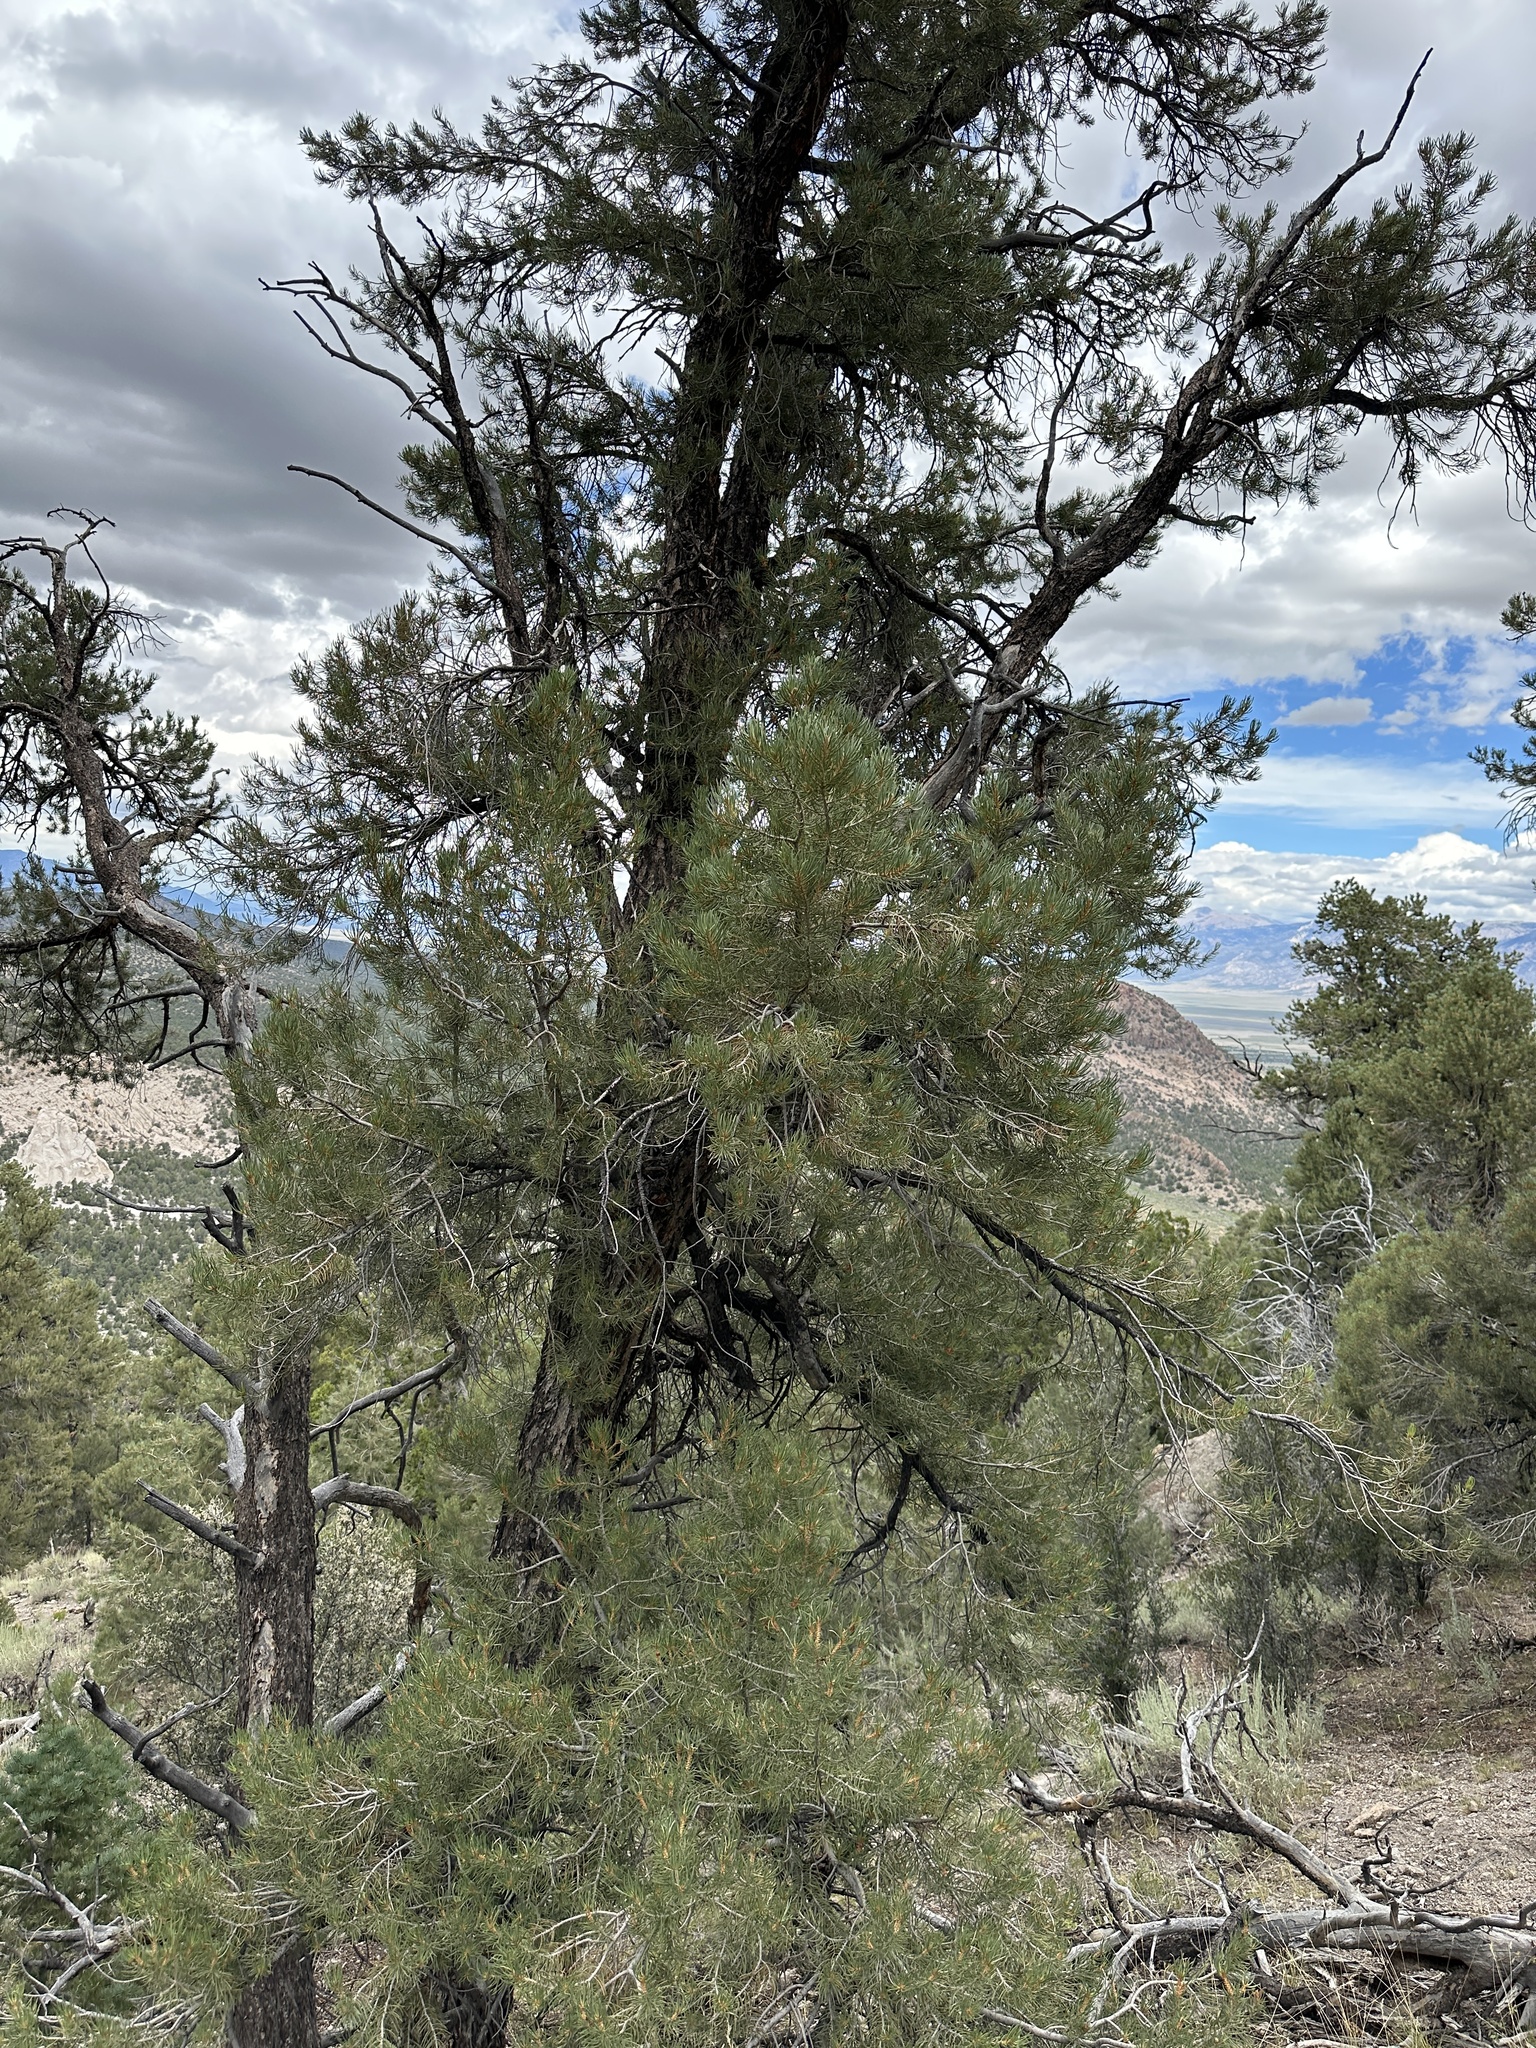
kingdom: Plantae
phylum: Tracheophyta
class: Pinopsida
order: Pinales
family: Pinaceae
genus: Pinus
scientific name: Pinus monophylla
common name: One-leaved nut pine
